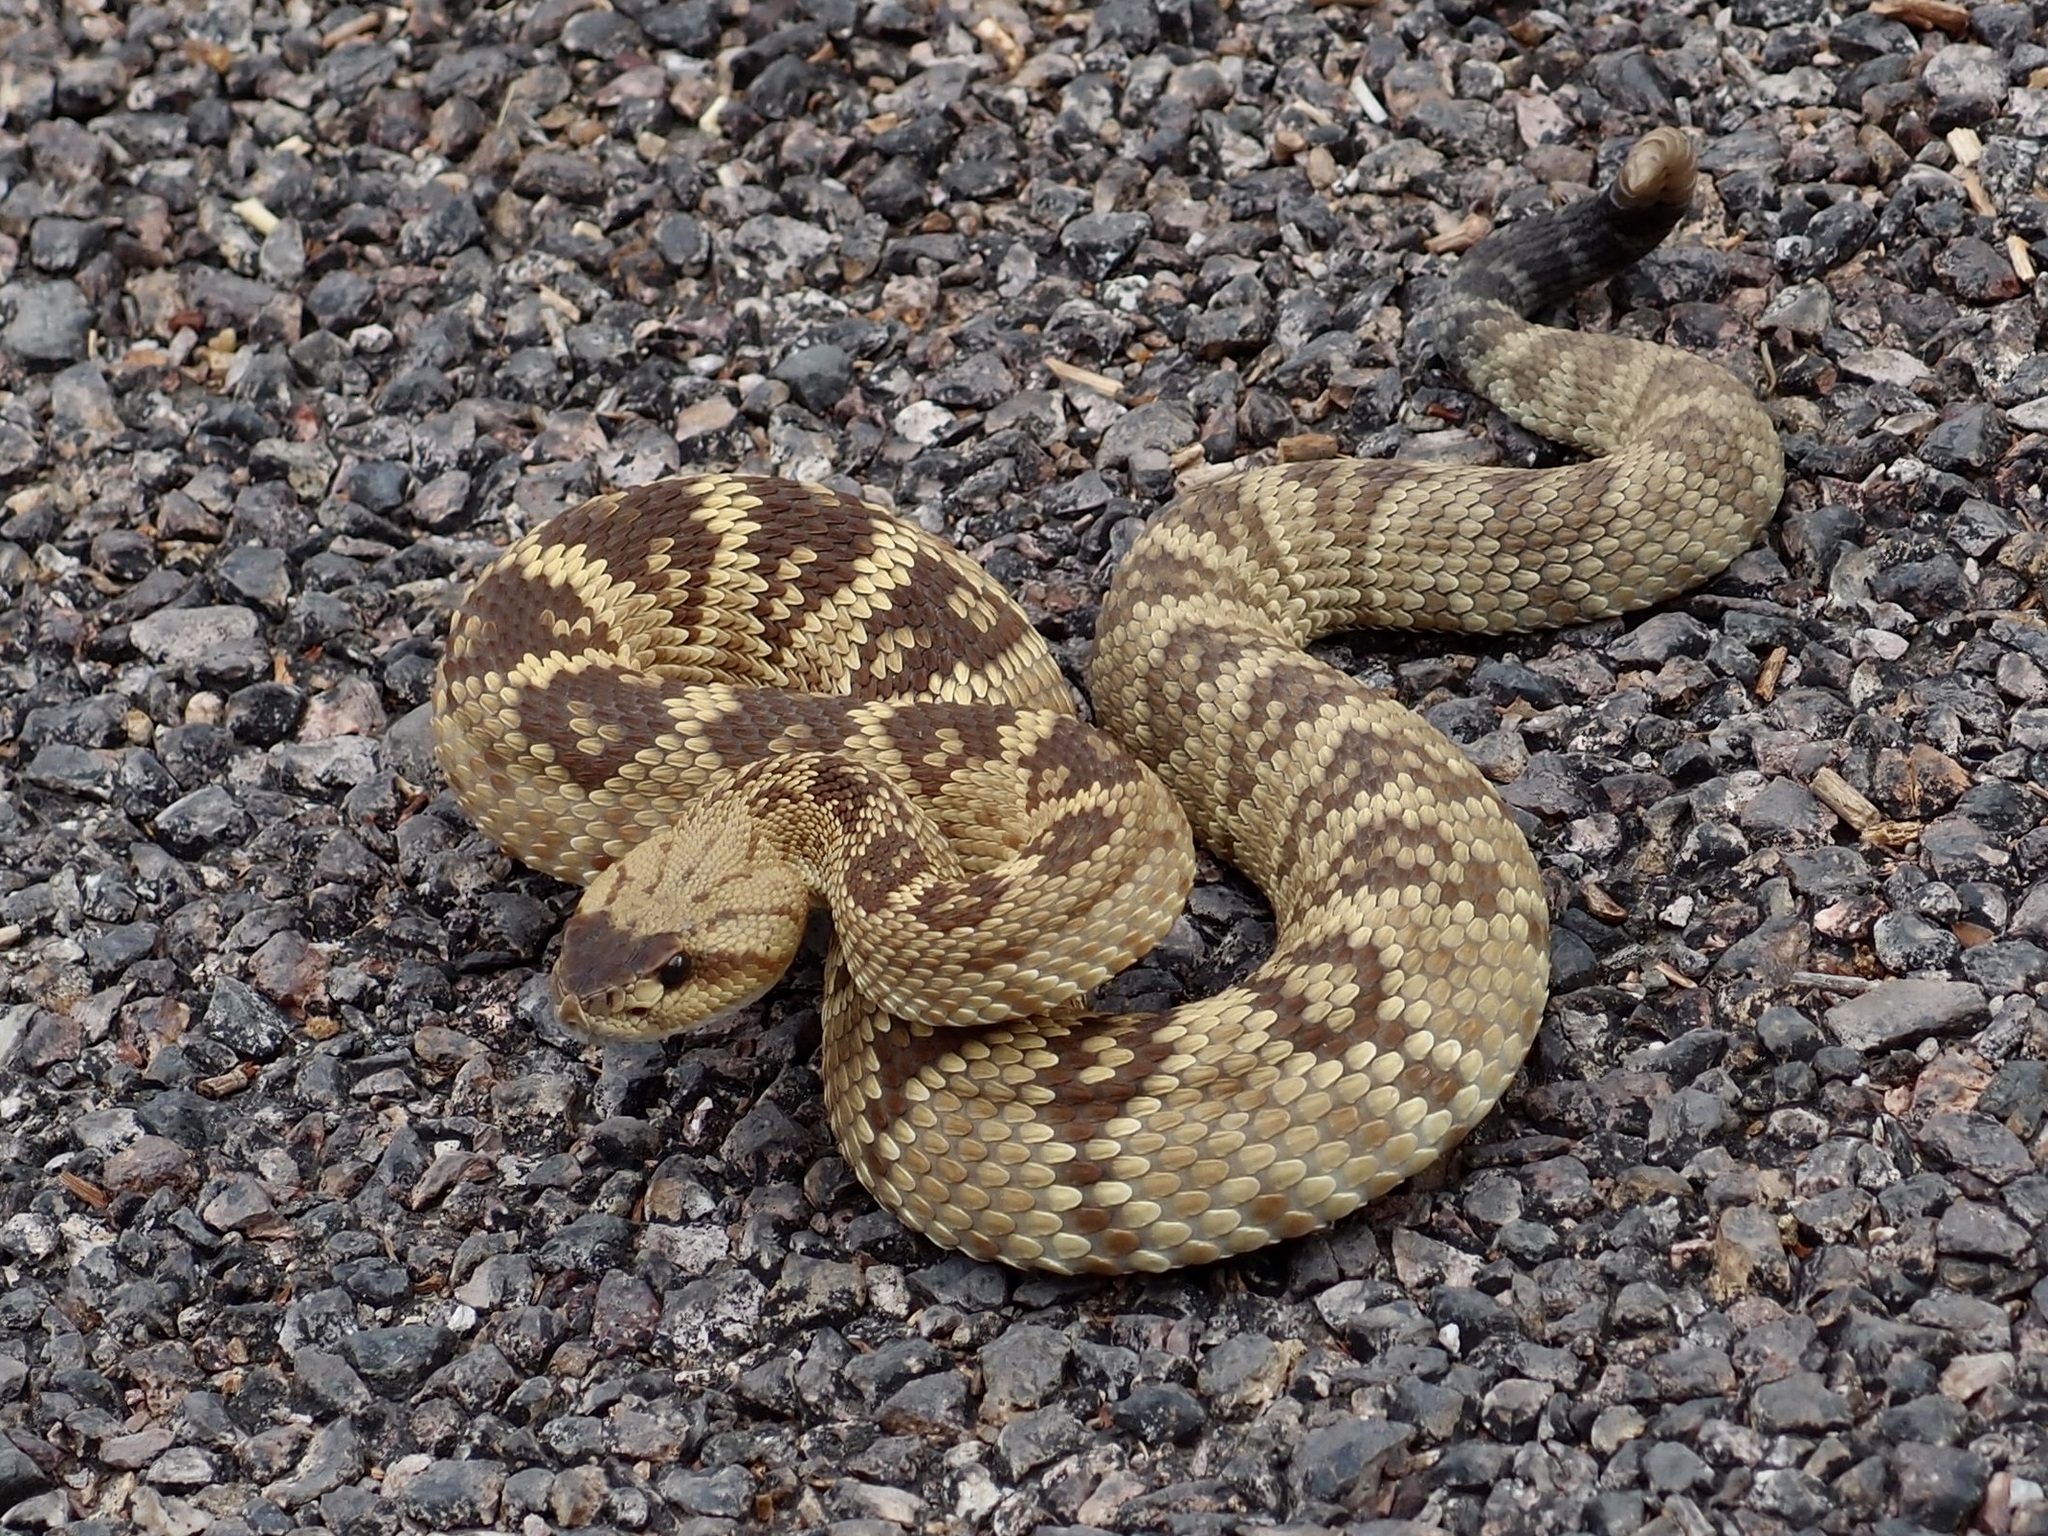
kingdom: Animalia
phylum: Chordata
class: Squamata
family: Viperidae
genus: Crotalus
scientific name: Crotalus molossus
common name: Black tailed rattlesnake
